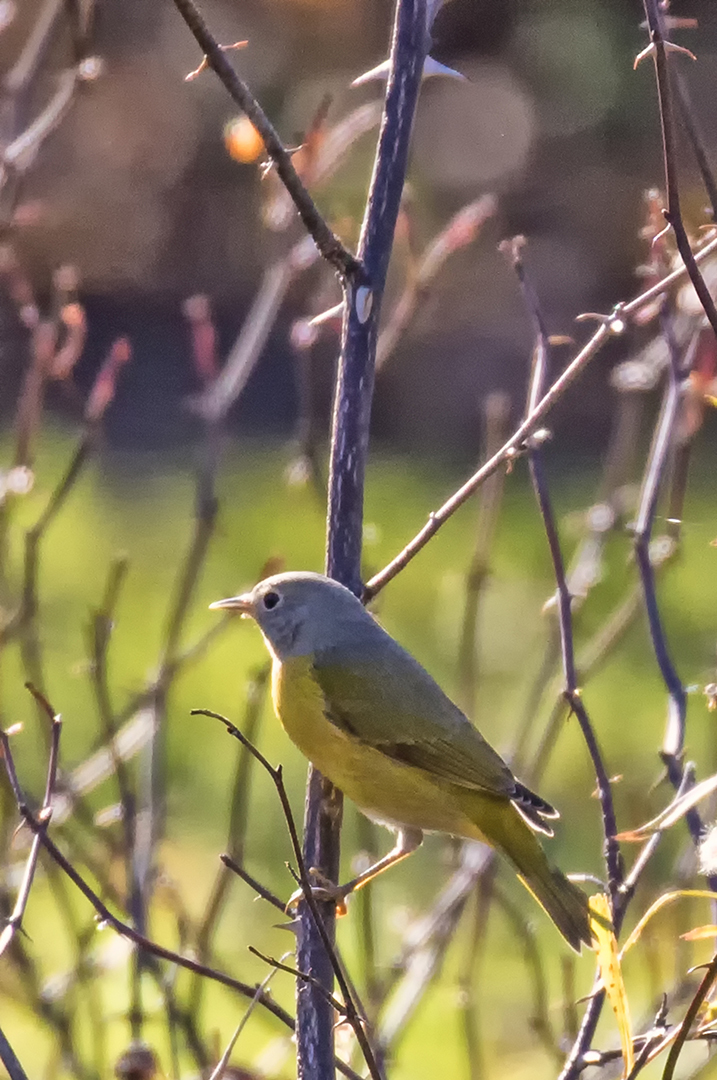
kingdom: Animalia
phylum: Chordata
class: Aves
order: Passeriformes
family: Parulidae
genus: Leiothlypis
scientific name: Leiothlypis ruficapilla
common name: Nashville warbler
